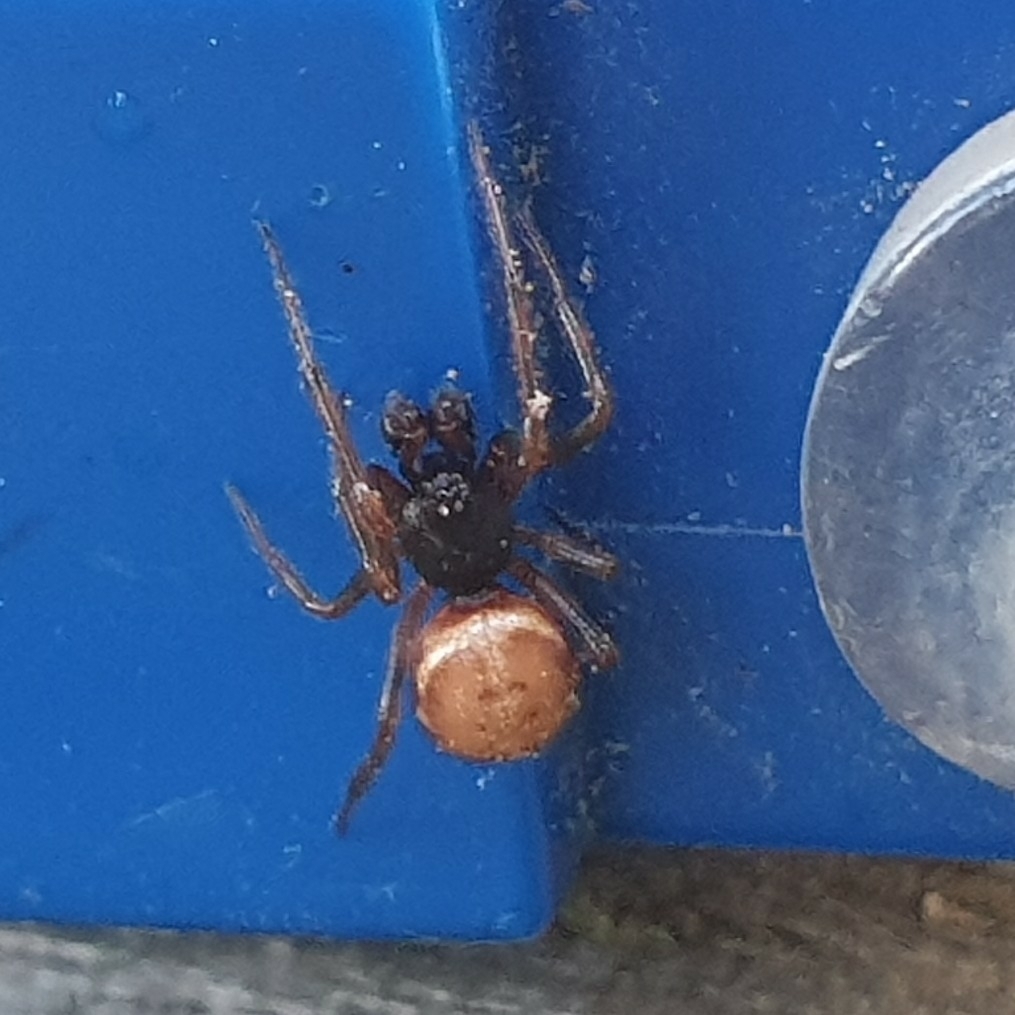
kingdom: Animalia
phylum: Arthropoda
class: Arachnida
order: Araneae
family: Theridiidae
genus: Steatoda
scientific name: Steatoda bipunctata
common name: False widow
